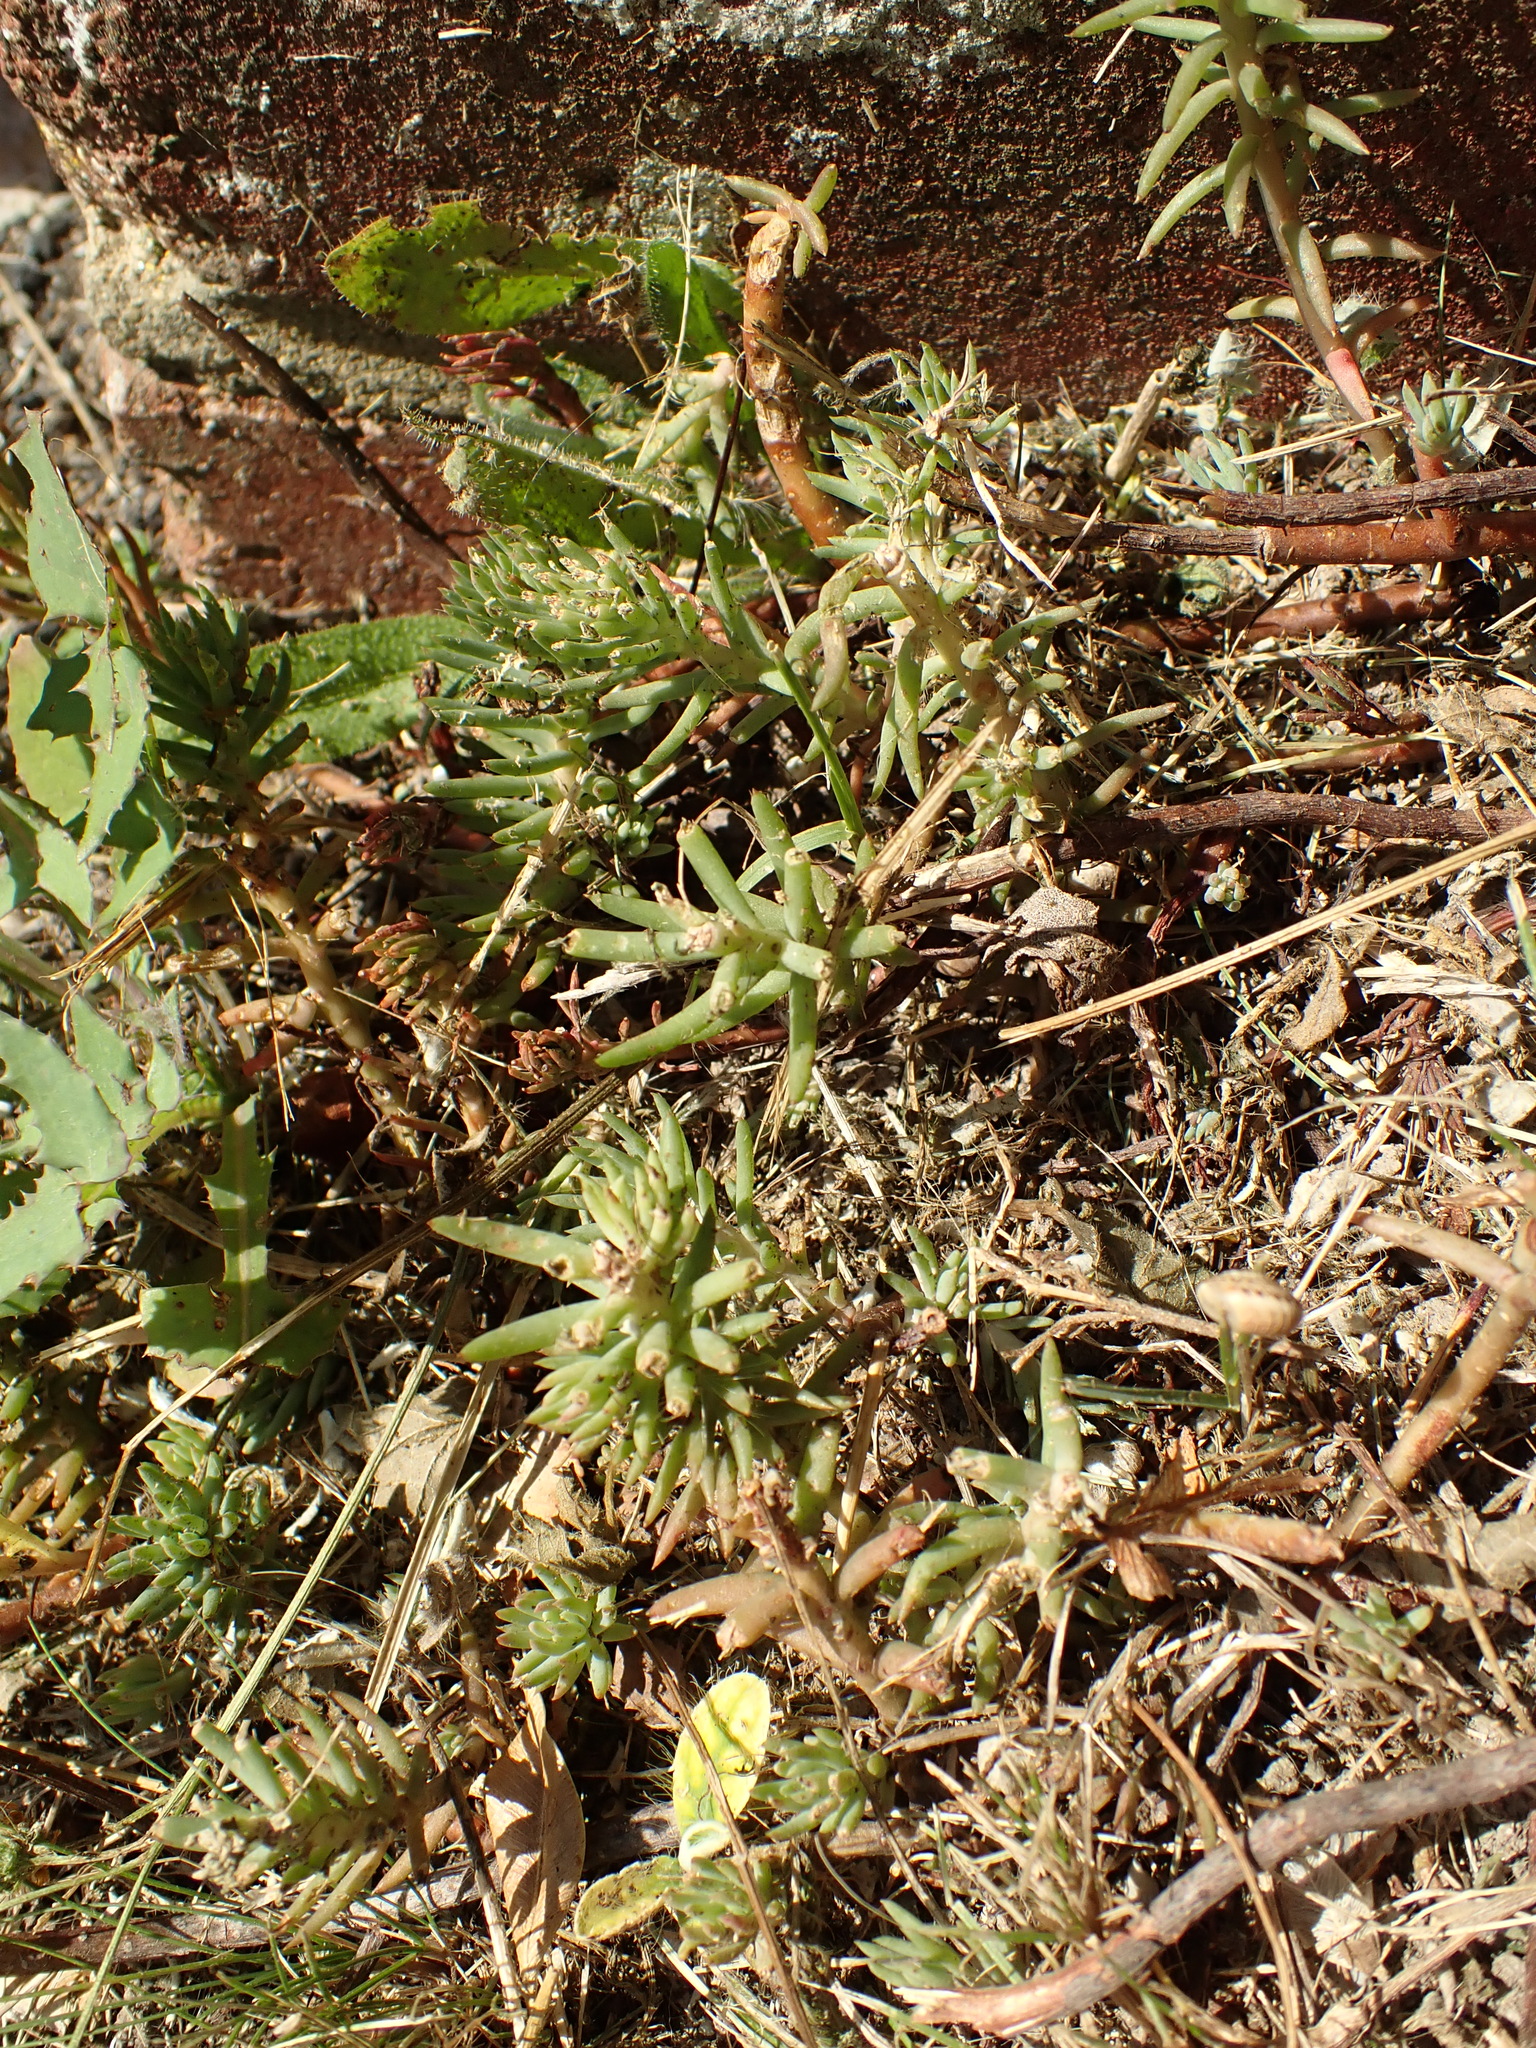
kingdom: Plantae
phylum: Tracheophyta
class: Magnoliopsida
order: Saxifragales
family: Crassulaceae
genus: Petrosedum
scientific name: Petrosedum rupestre
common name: Jenny's stonecrop
